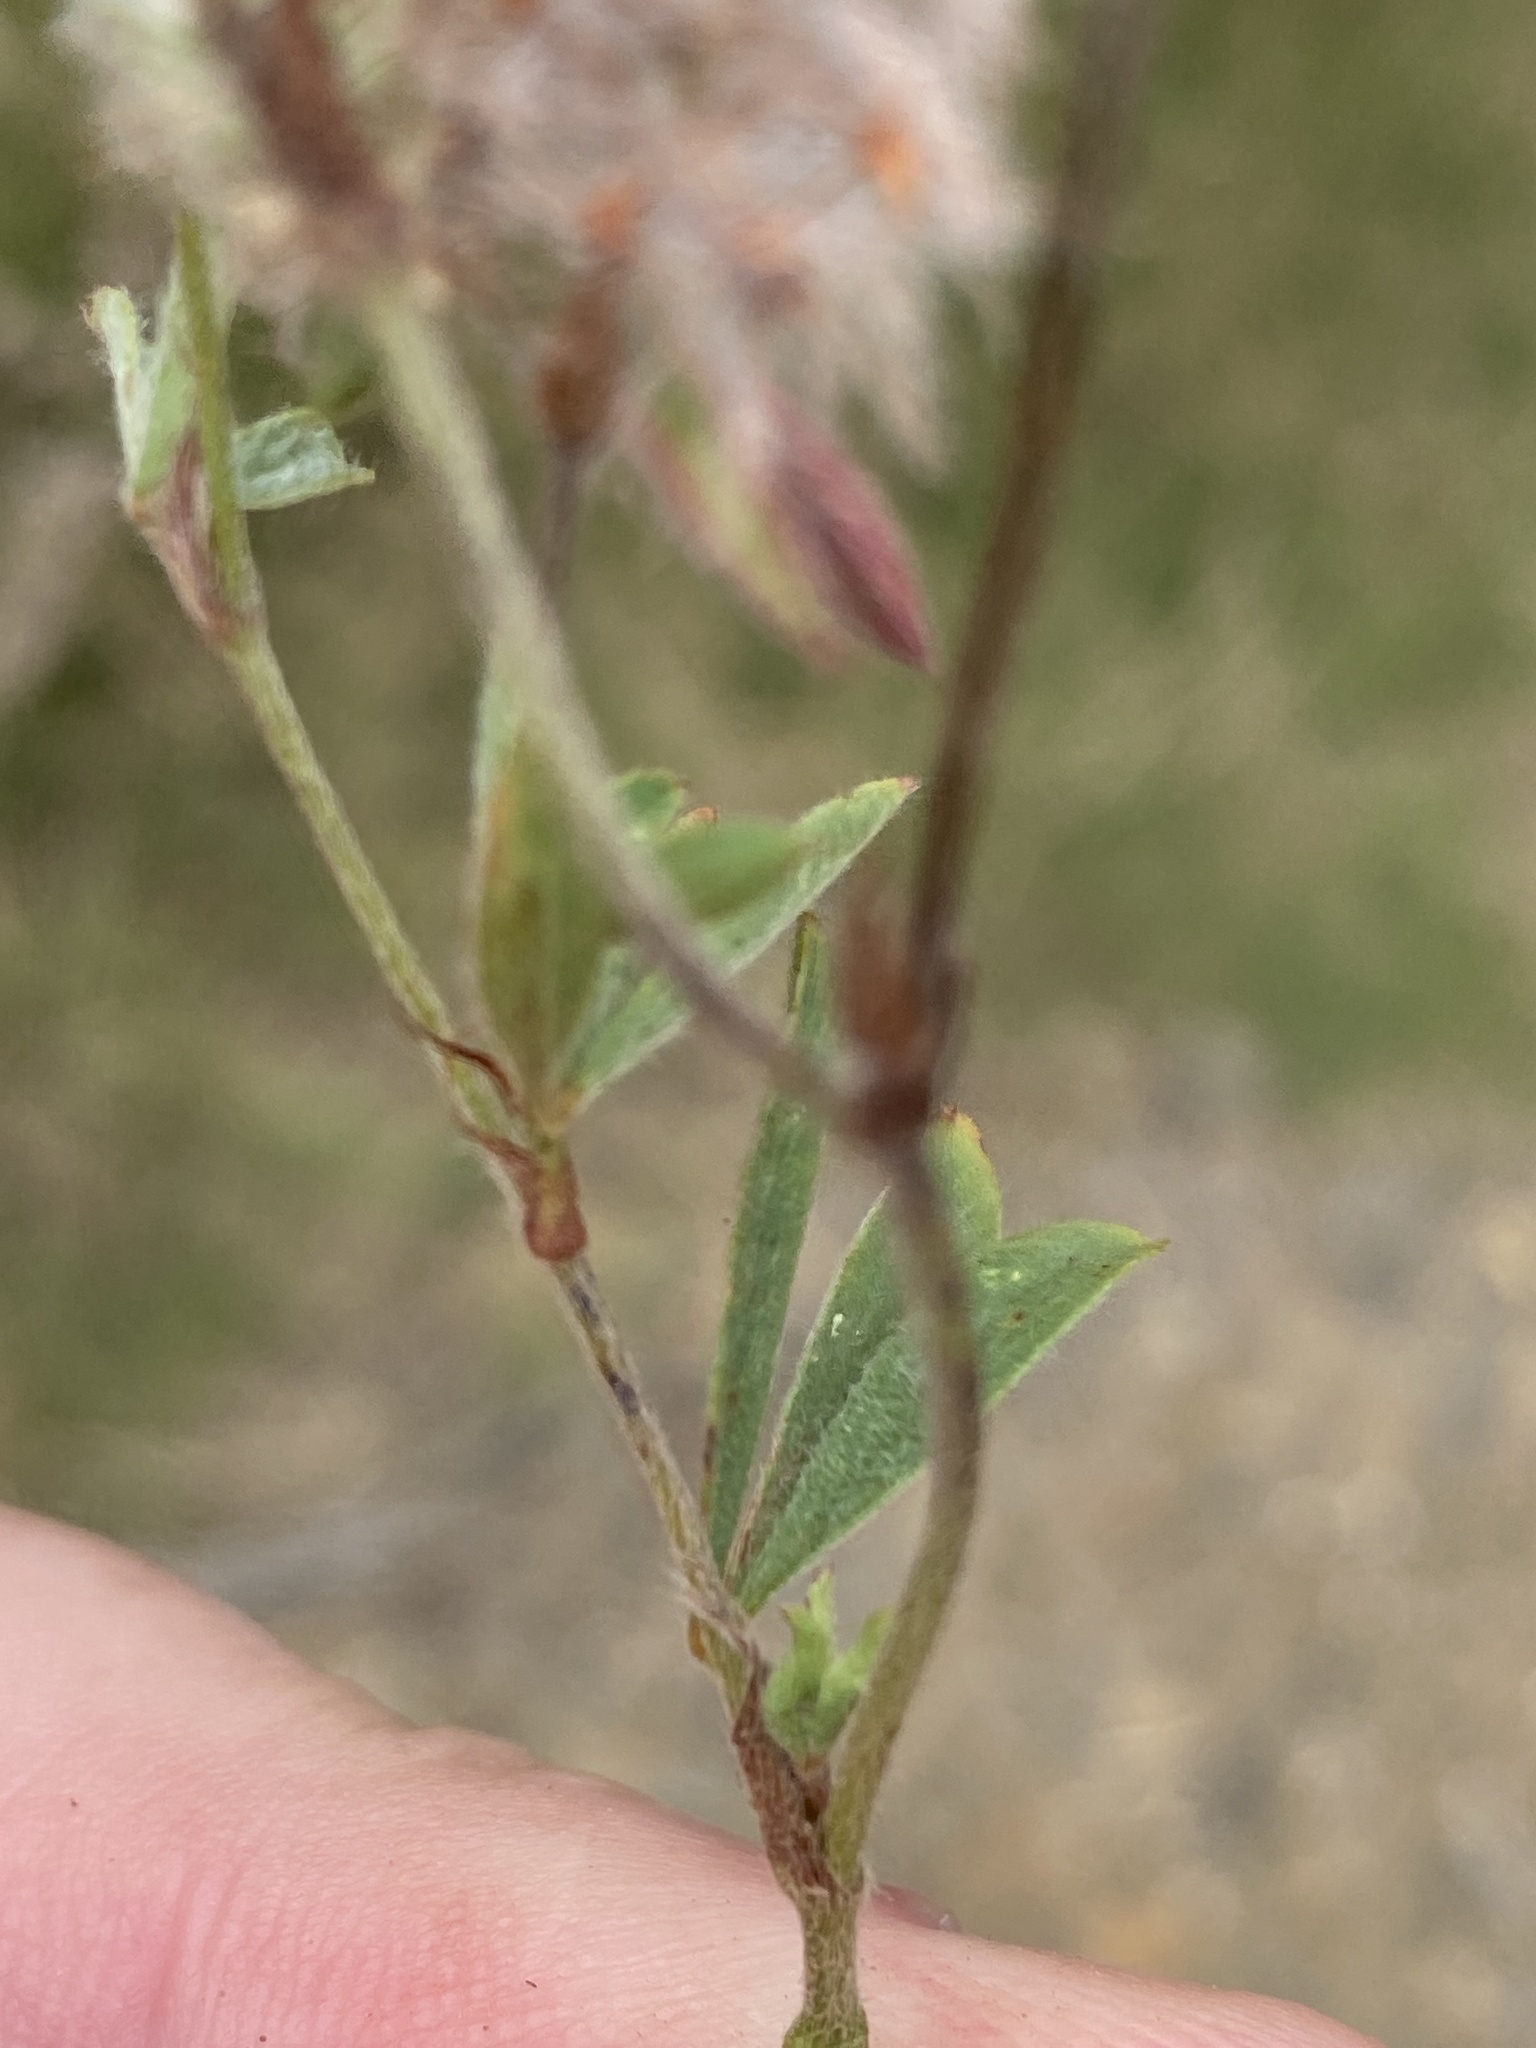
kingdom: Plantae
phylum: Tracheophyta
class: Magnoliopsida
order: Fabales
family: Fabaceae
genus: Trifolium
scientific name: Trifolium angustifolium
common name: Narrow clover
